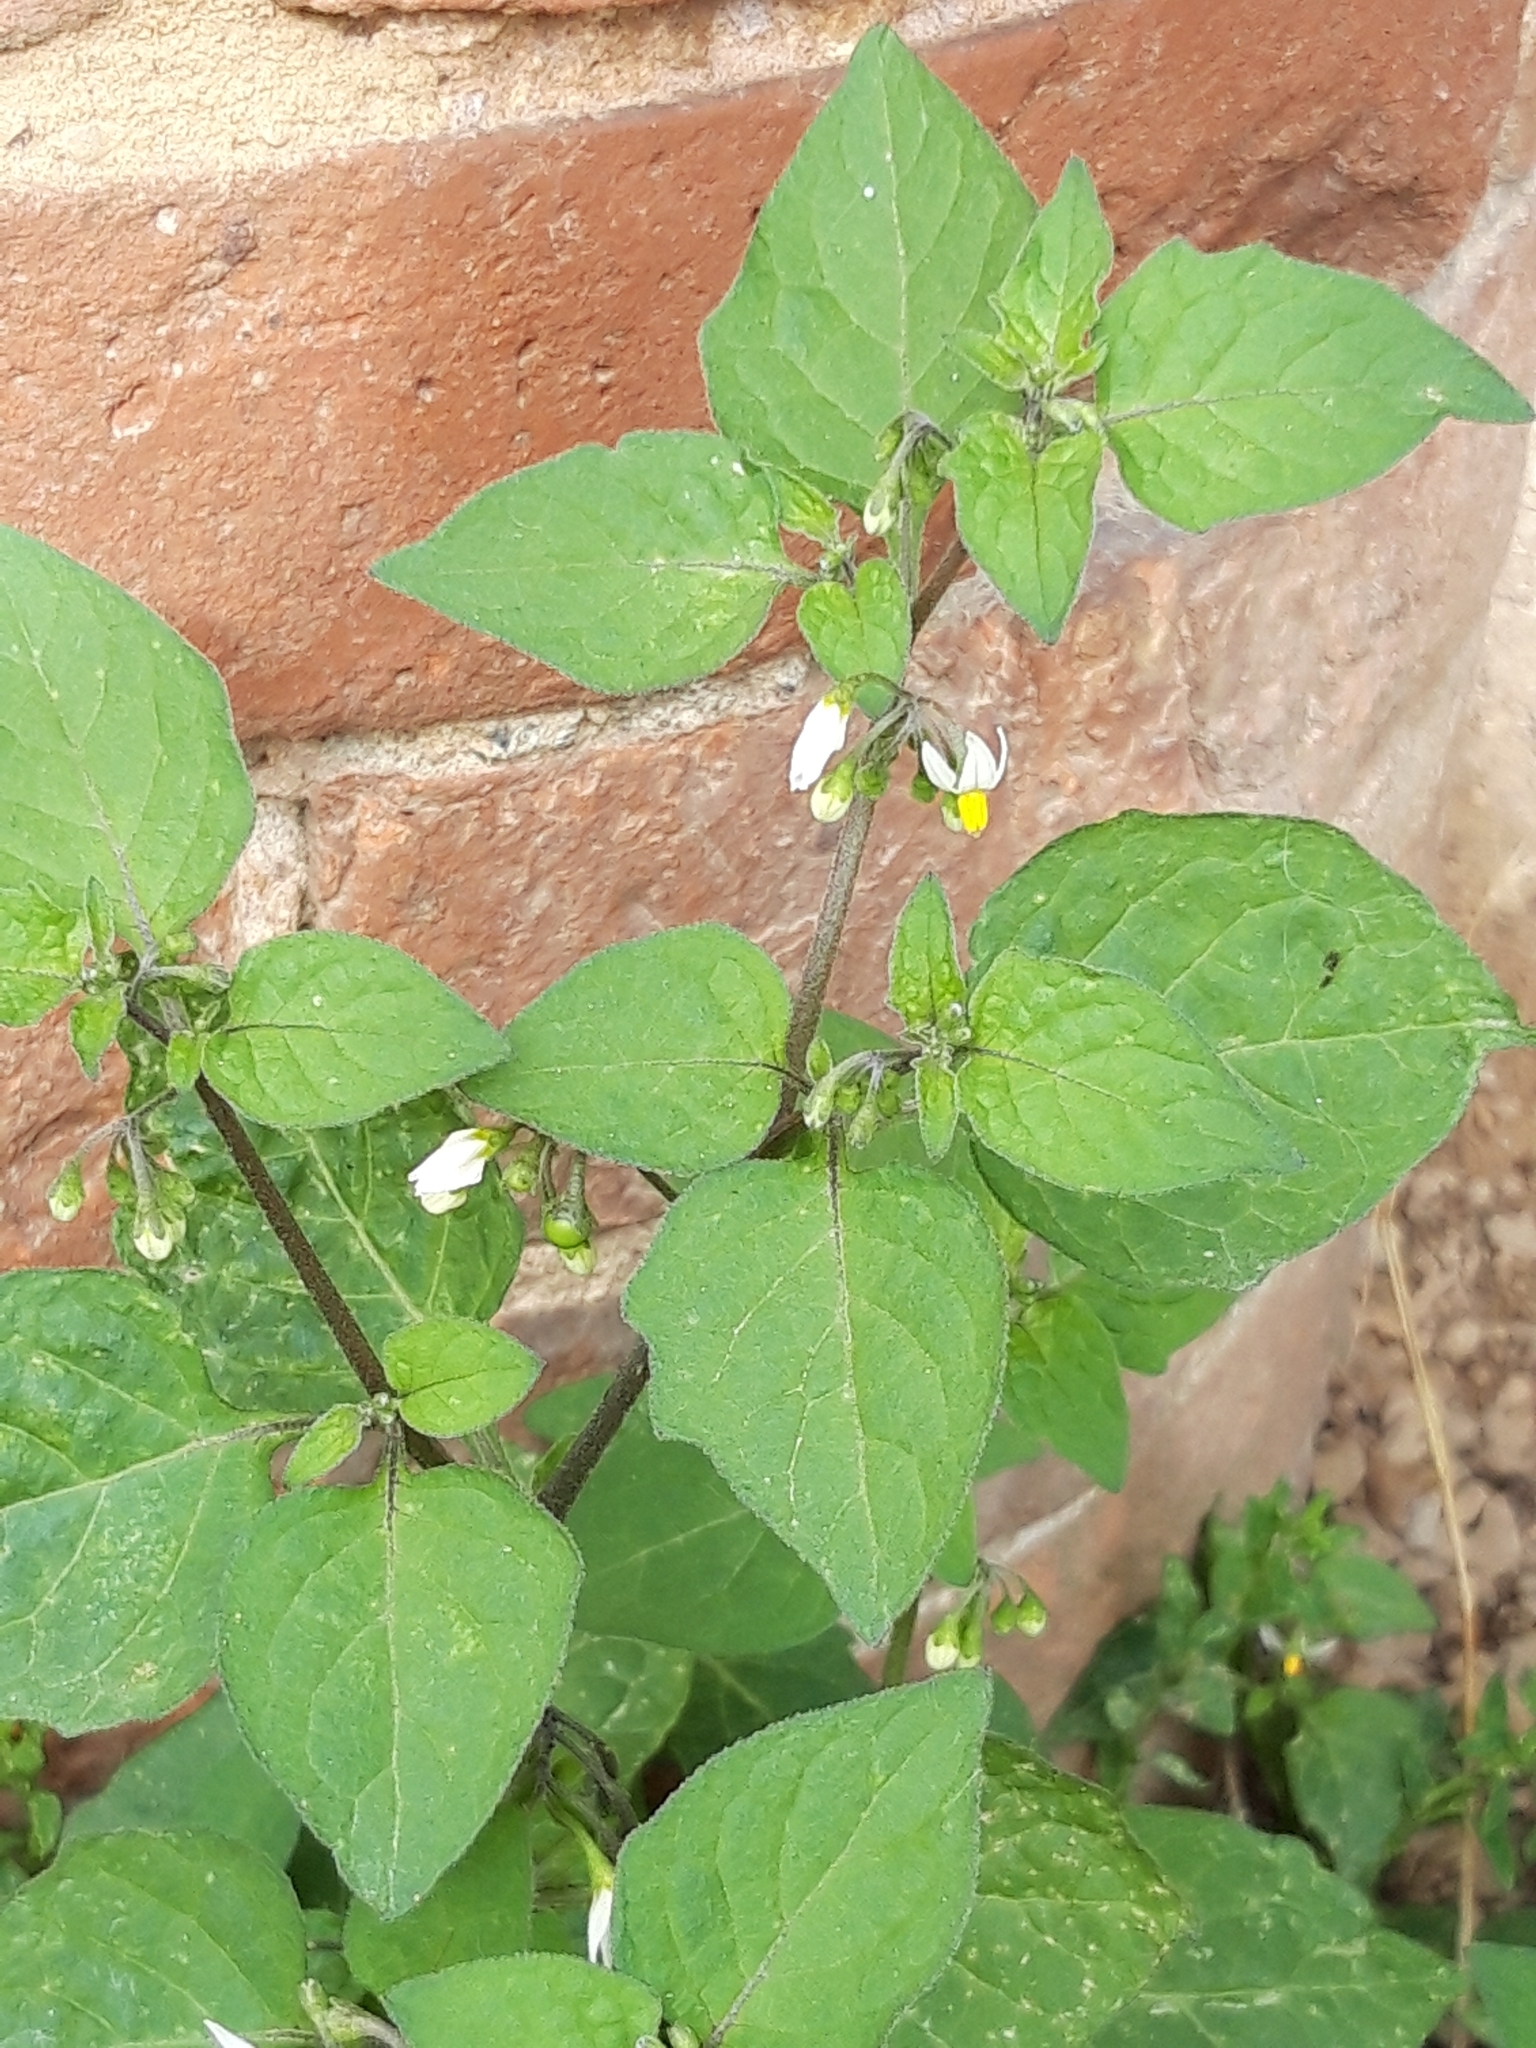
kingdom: Plantae
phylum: Tracheophyta
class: Magnoliopsida
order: Solanales
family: Solanaceae
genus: Solanum
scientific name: Solanum nigrum
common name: Black nightshade
